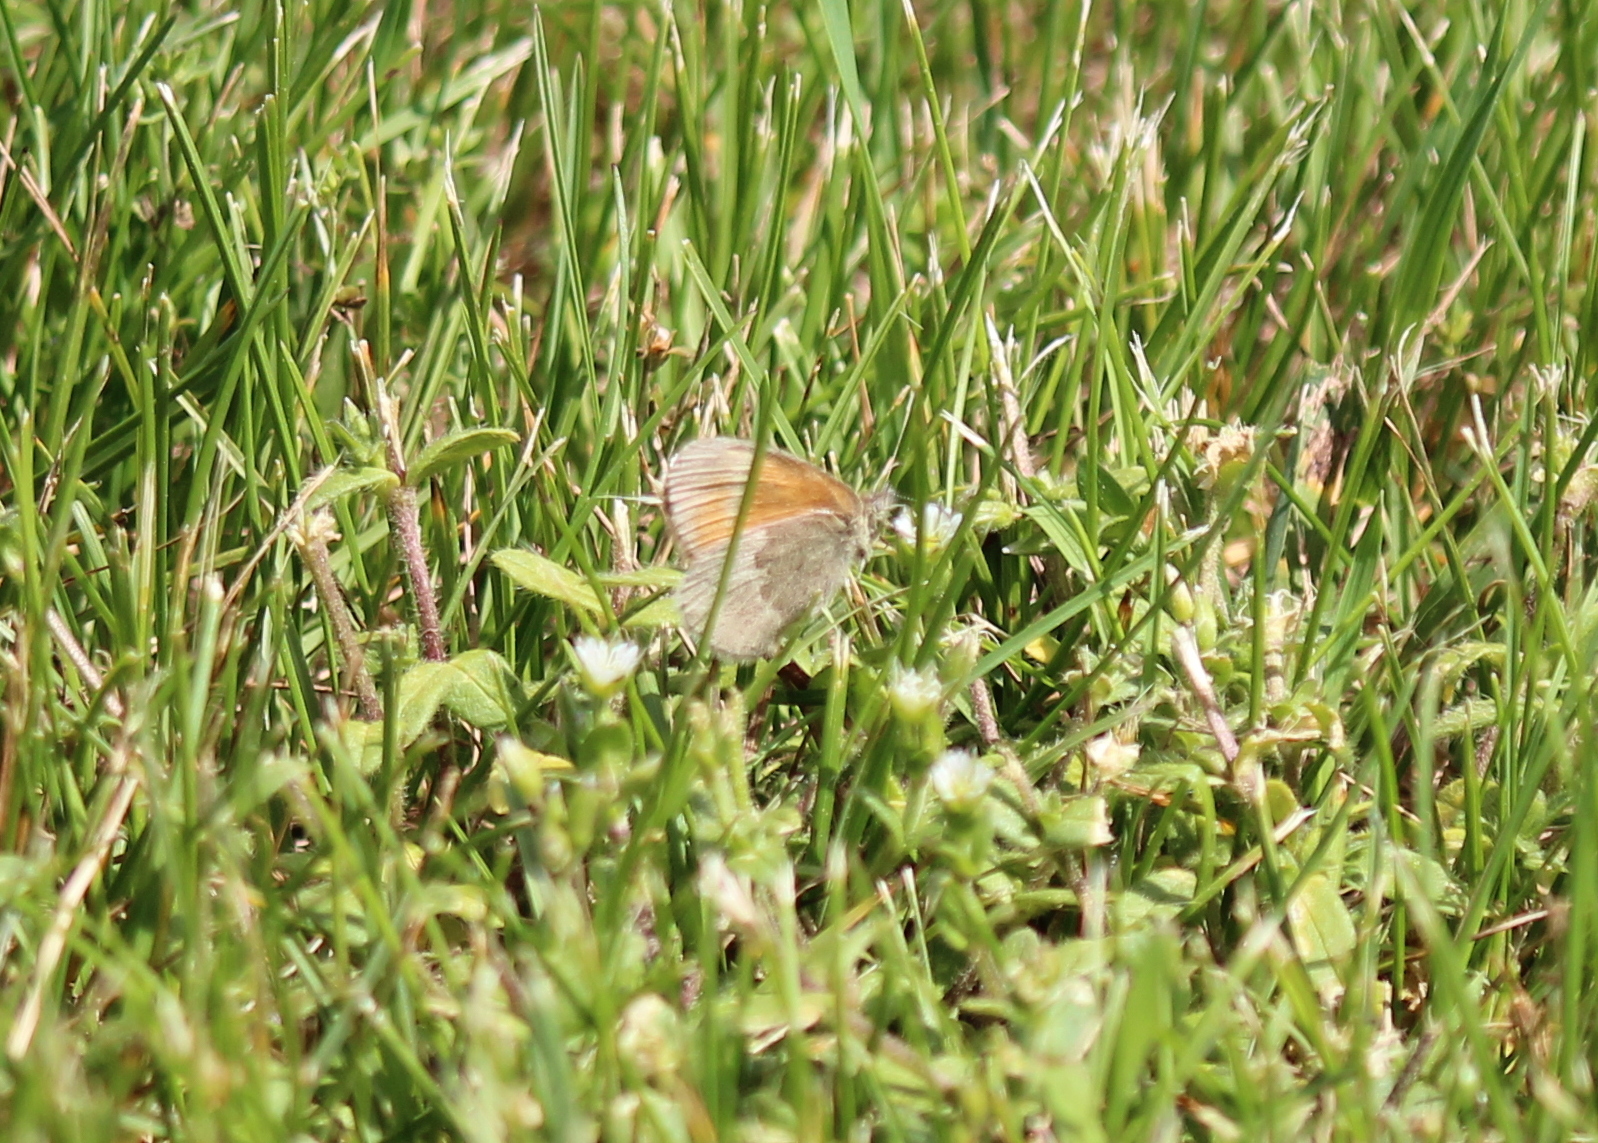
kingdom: Animalia
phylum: Arthropoda
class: Insecta
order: Lepidoptera
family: Nymphalidae
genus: Coenonympha
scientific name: Coenonympha california
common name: Common ringlet
